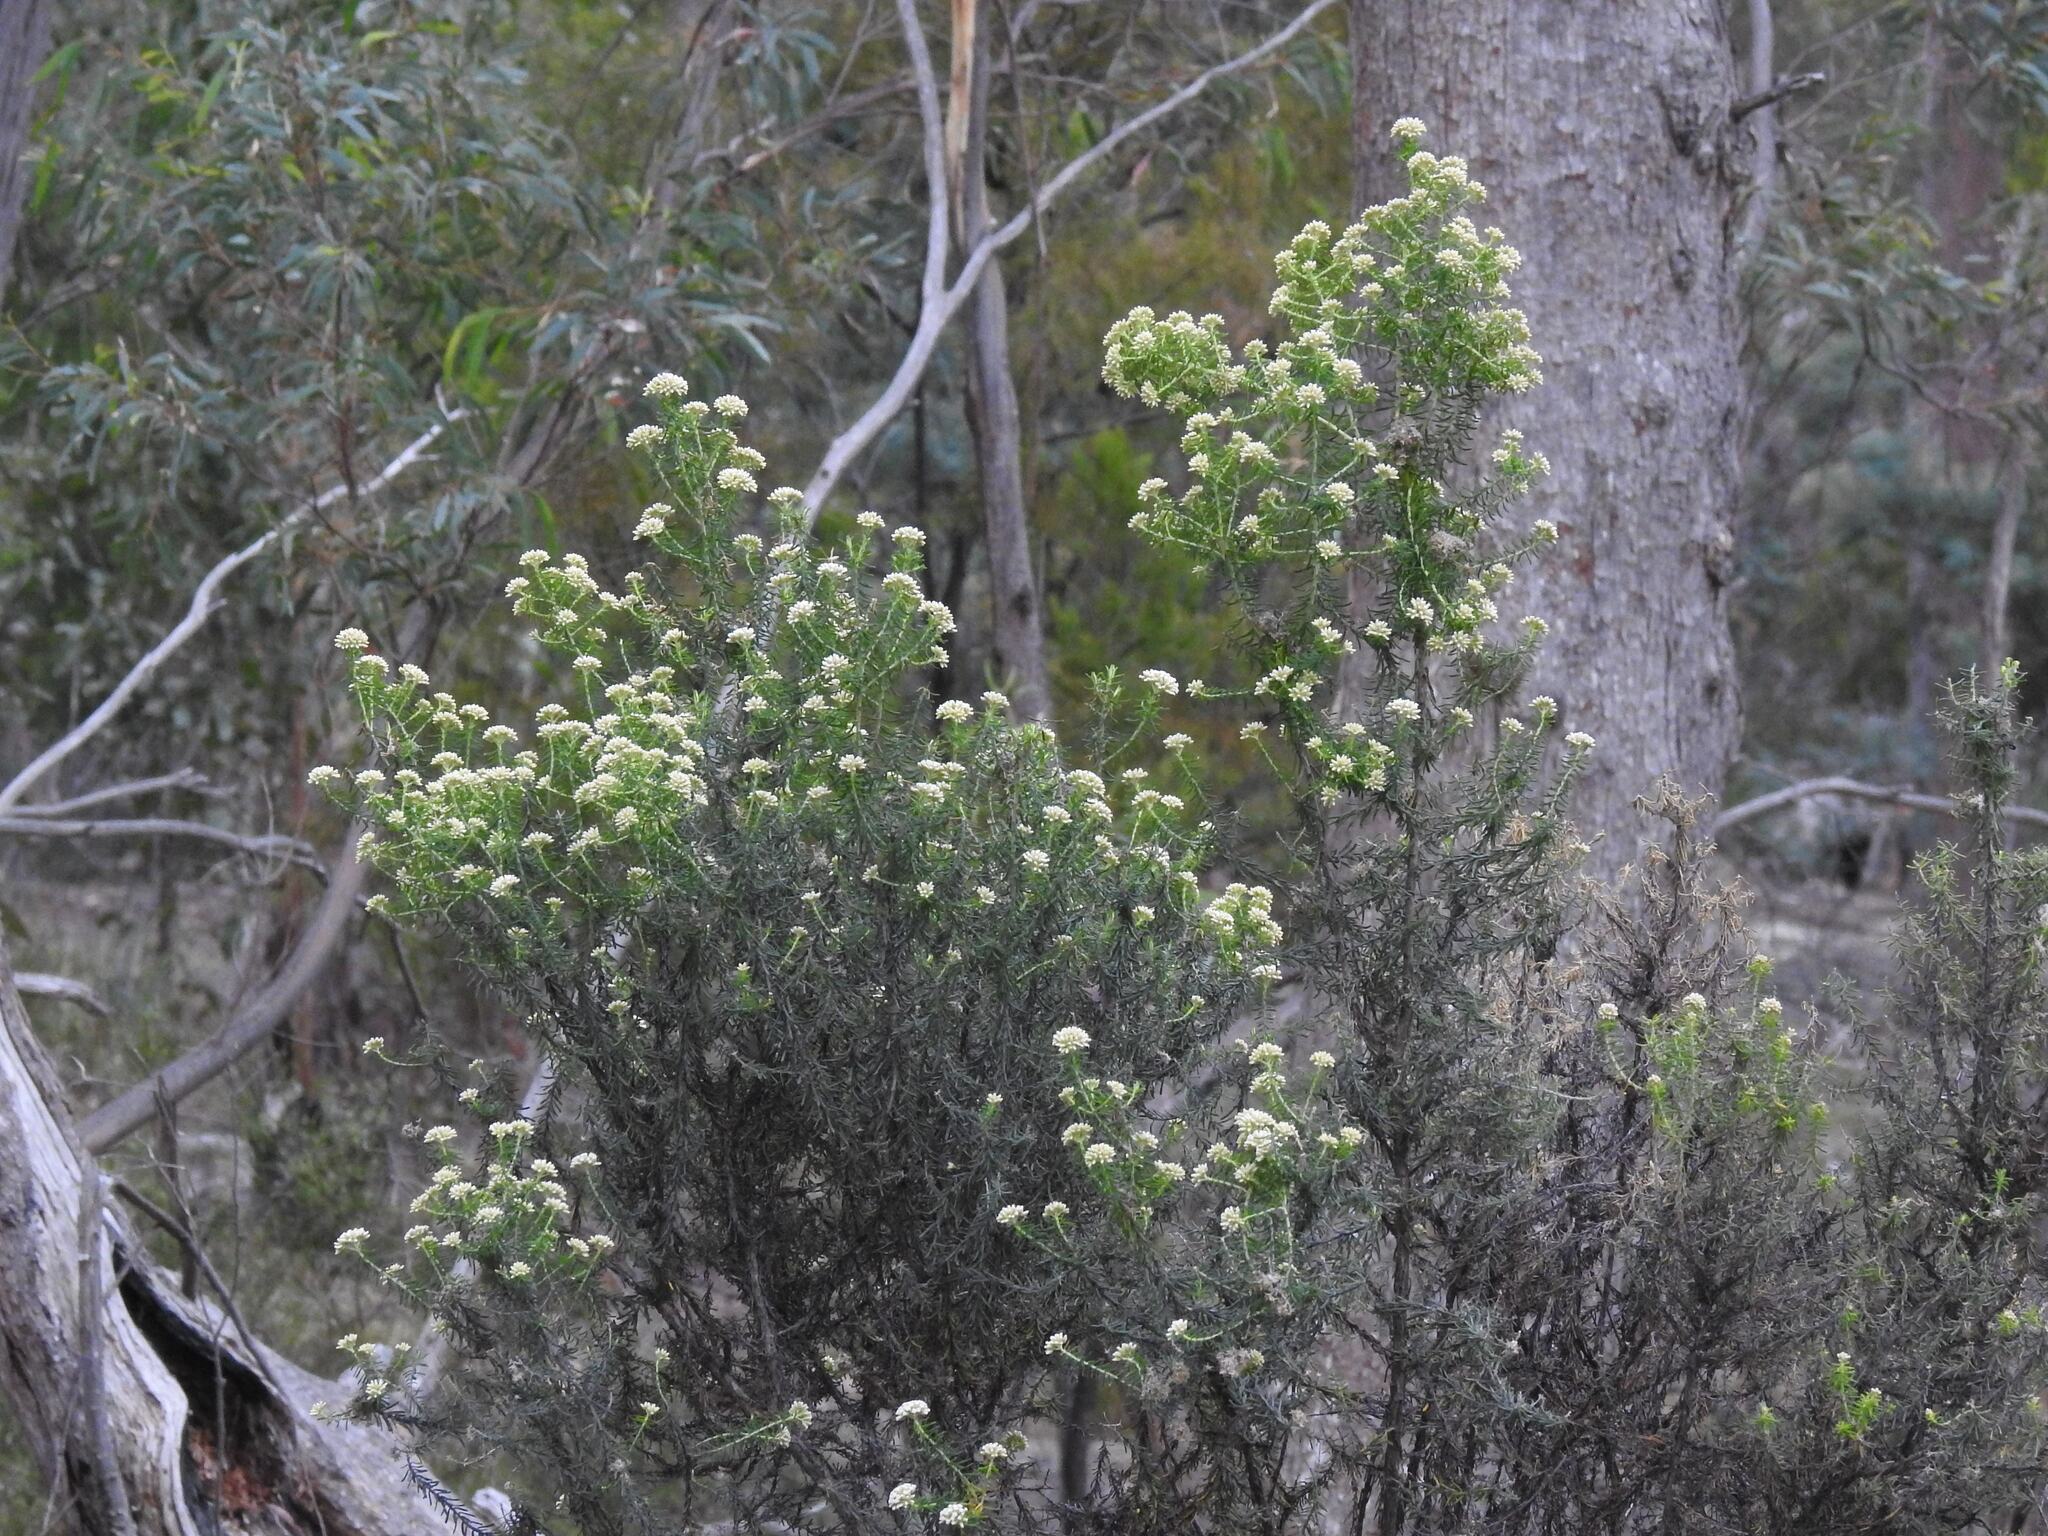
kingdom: Plantae
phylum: Tracheophyta
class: Magnoliopsida
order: Asterales
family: Asteraceae
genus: Ozothamnus
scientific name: Ozothamnus reflexus
